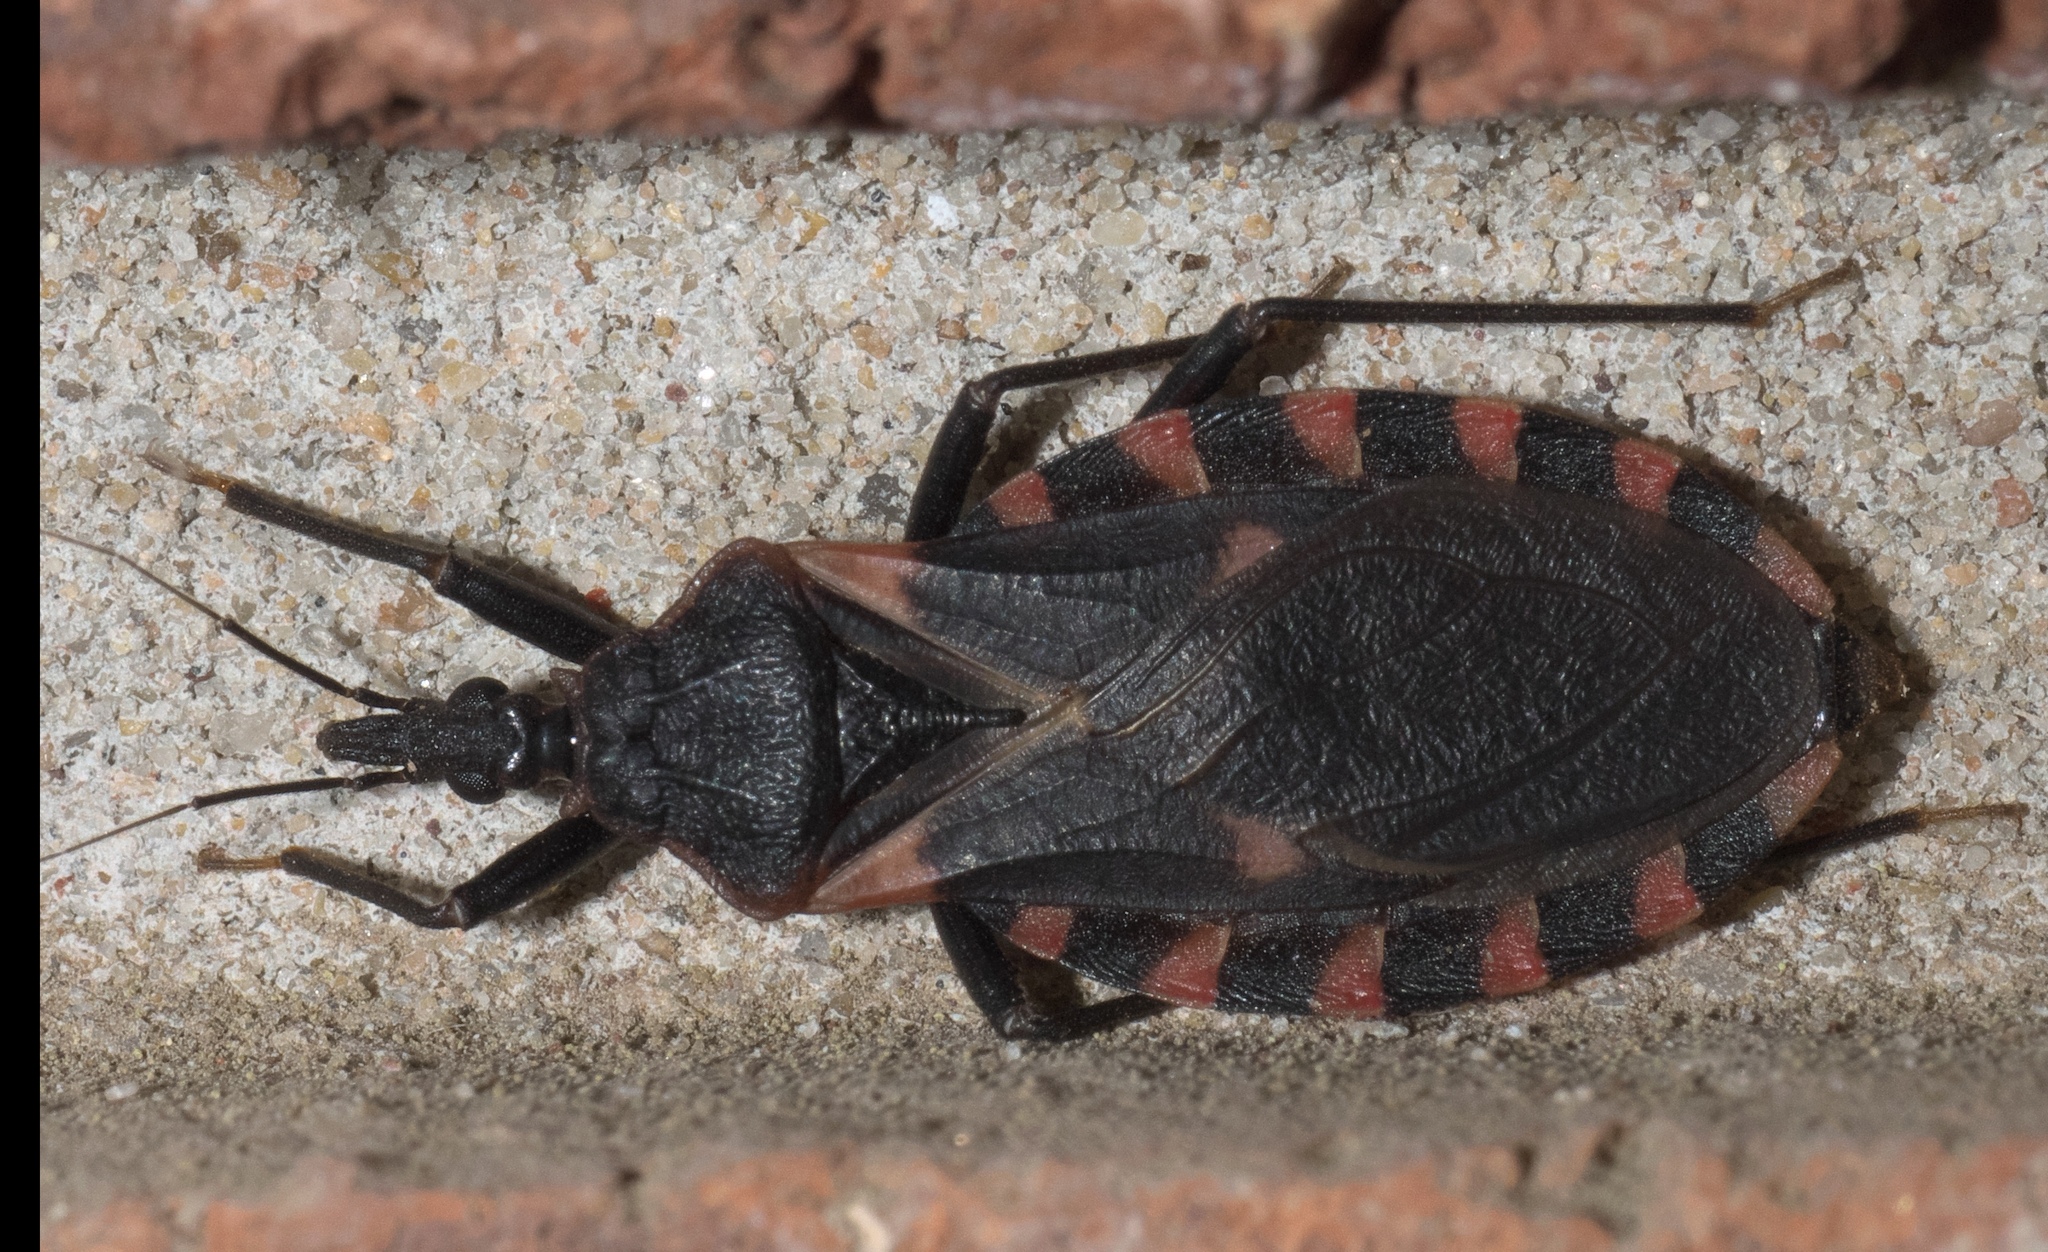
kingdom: Animalia
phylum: Arthropoda
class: Insecta
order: Hemiptera
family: Reduviidae
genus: Triatoma
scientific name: Triatoma sanguisuga
